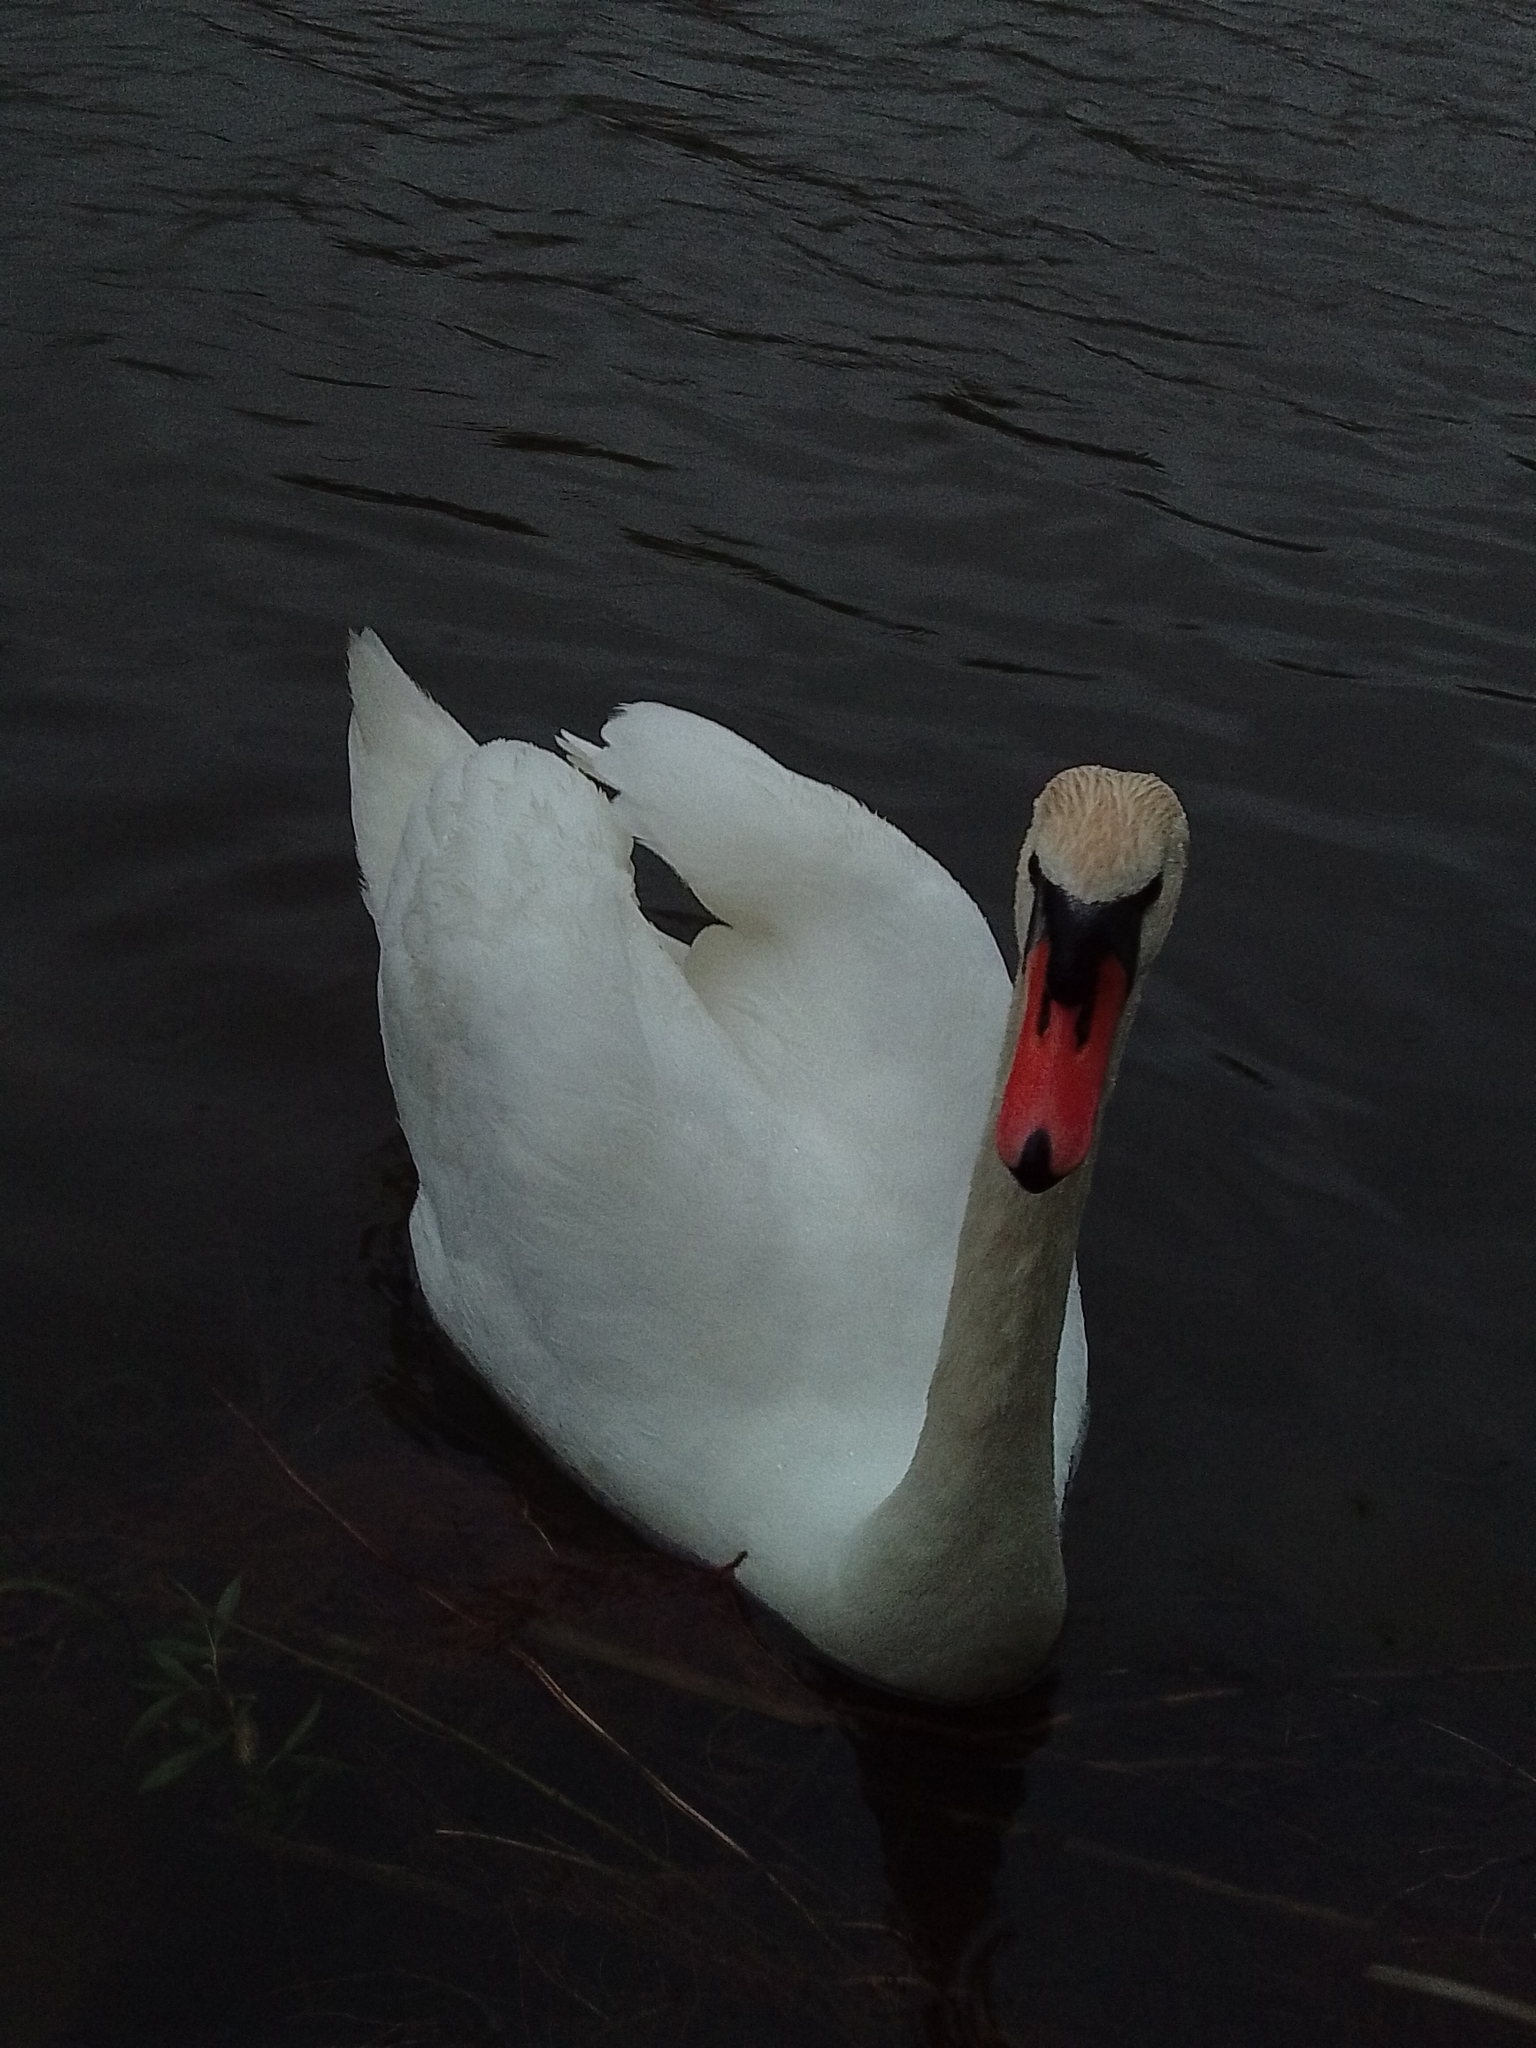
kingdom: Animalia
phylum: Chordata
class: Aves
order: Anseriformes
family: Anatidae
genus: Cygnus
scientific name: Cygnus olor
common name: Mute swan
